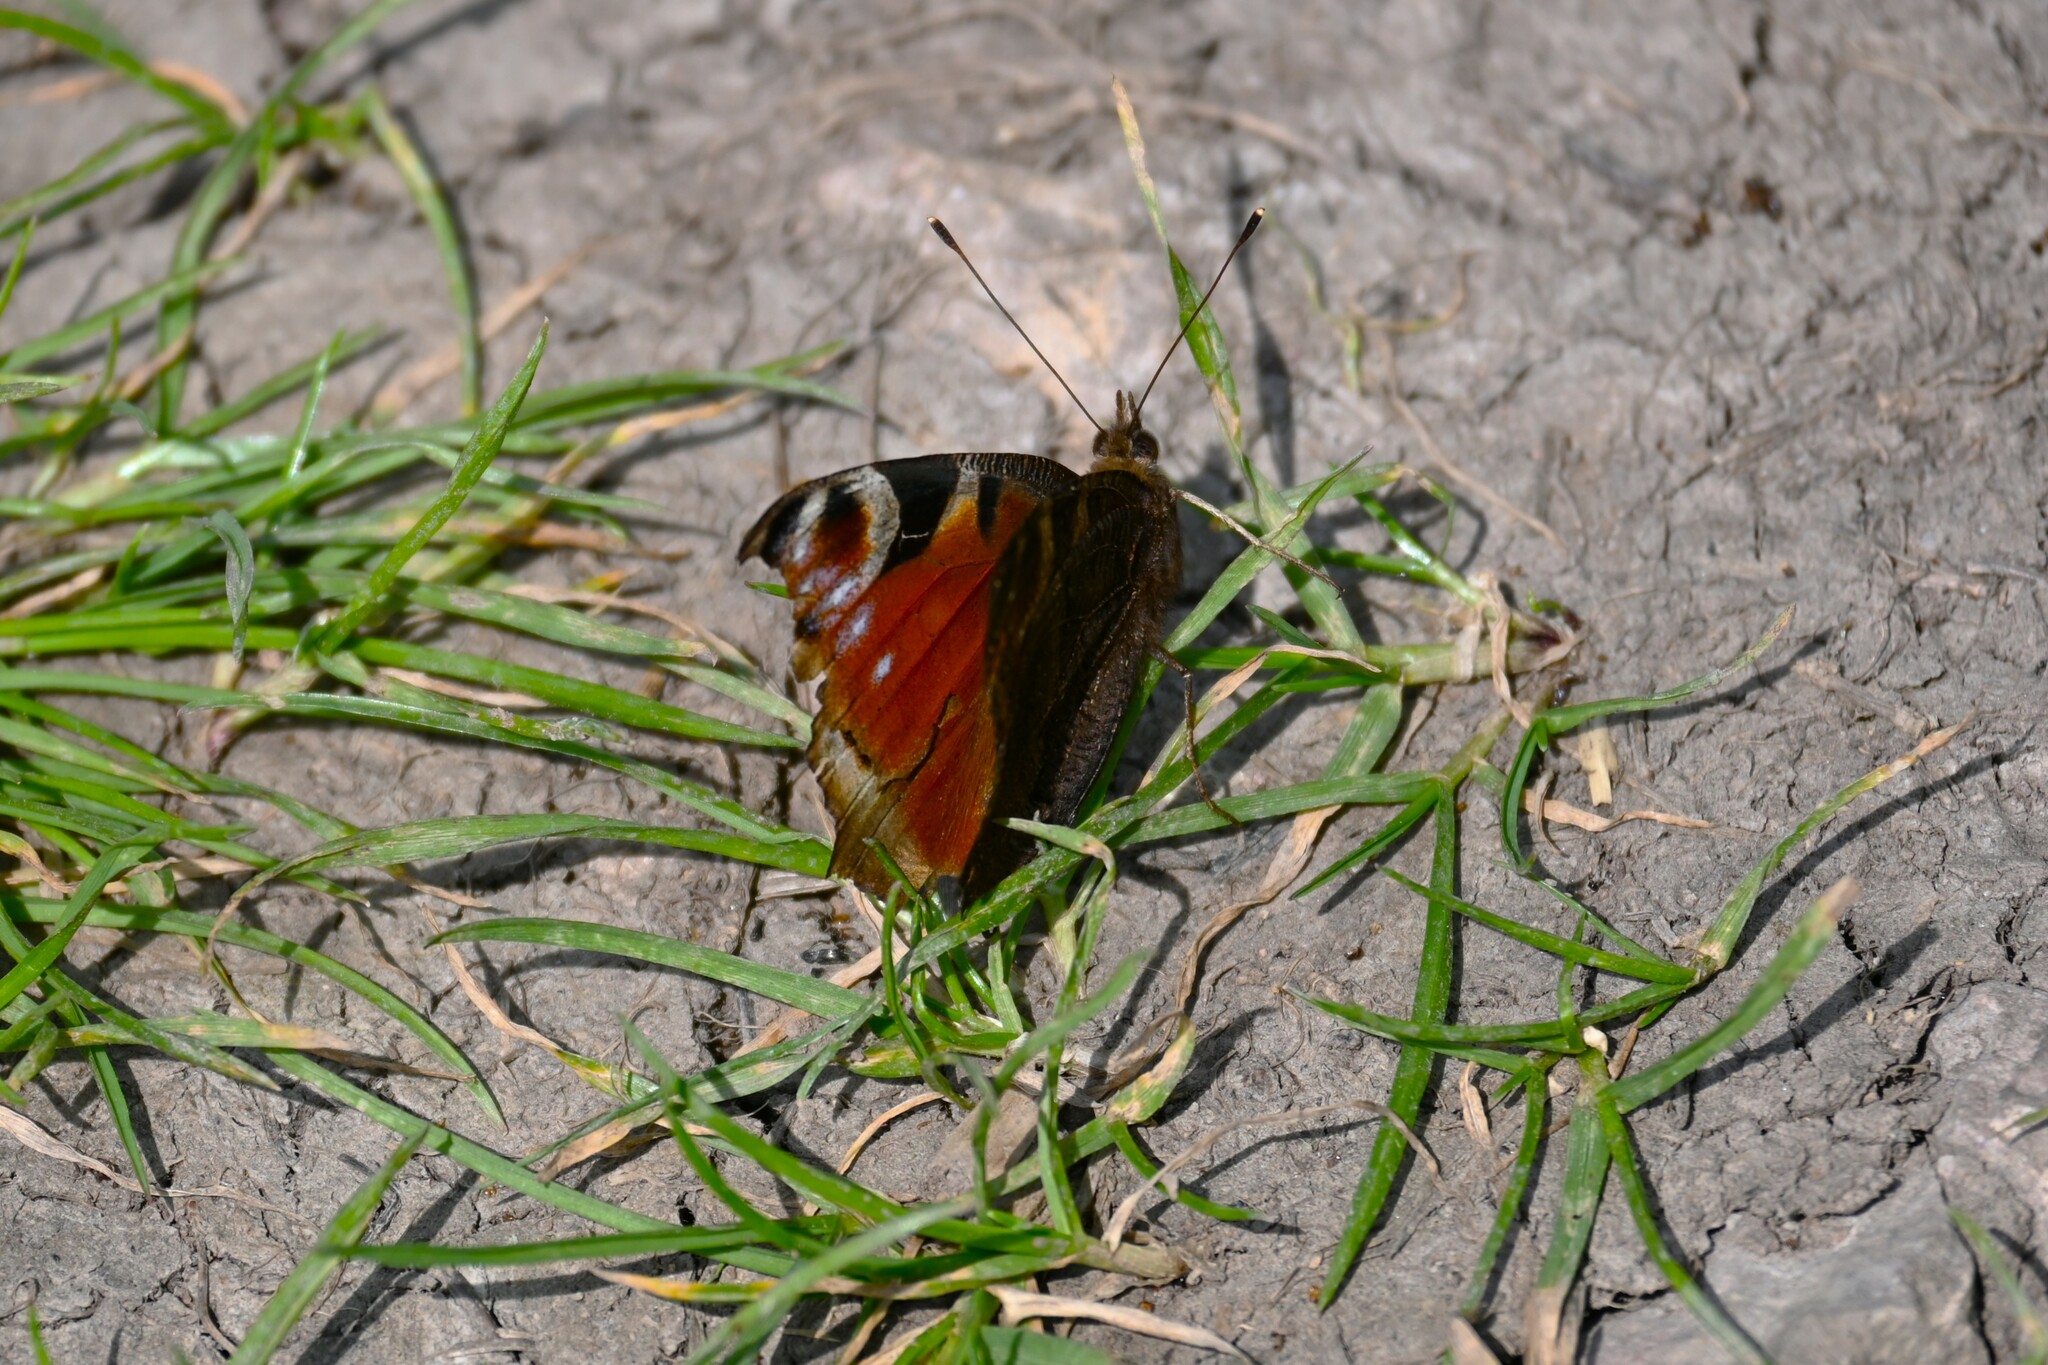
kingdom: Animalia
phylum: Arthropoda
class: Insecta
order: Lepidoptera
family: Nymphalidae
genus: Aglais
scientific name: Aglais io
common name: Peacock
